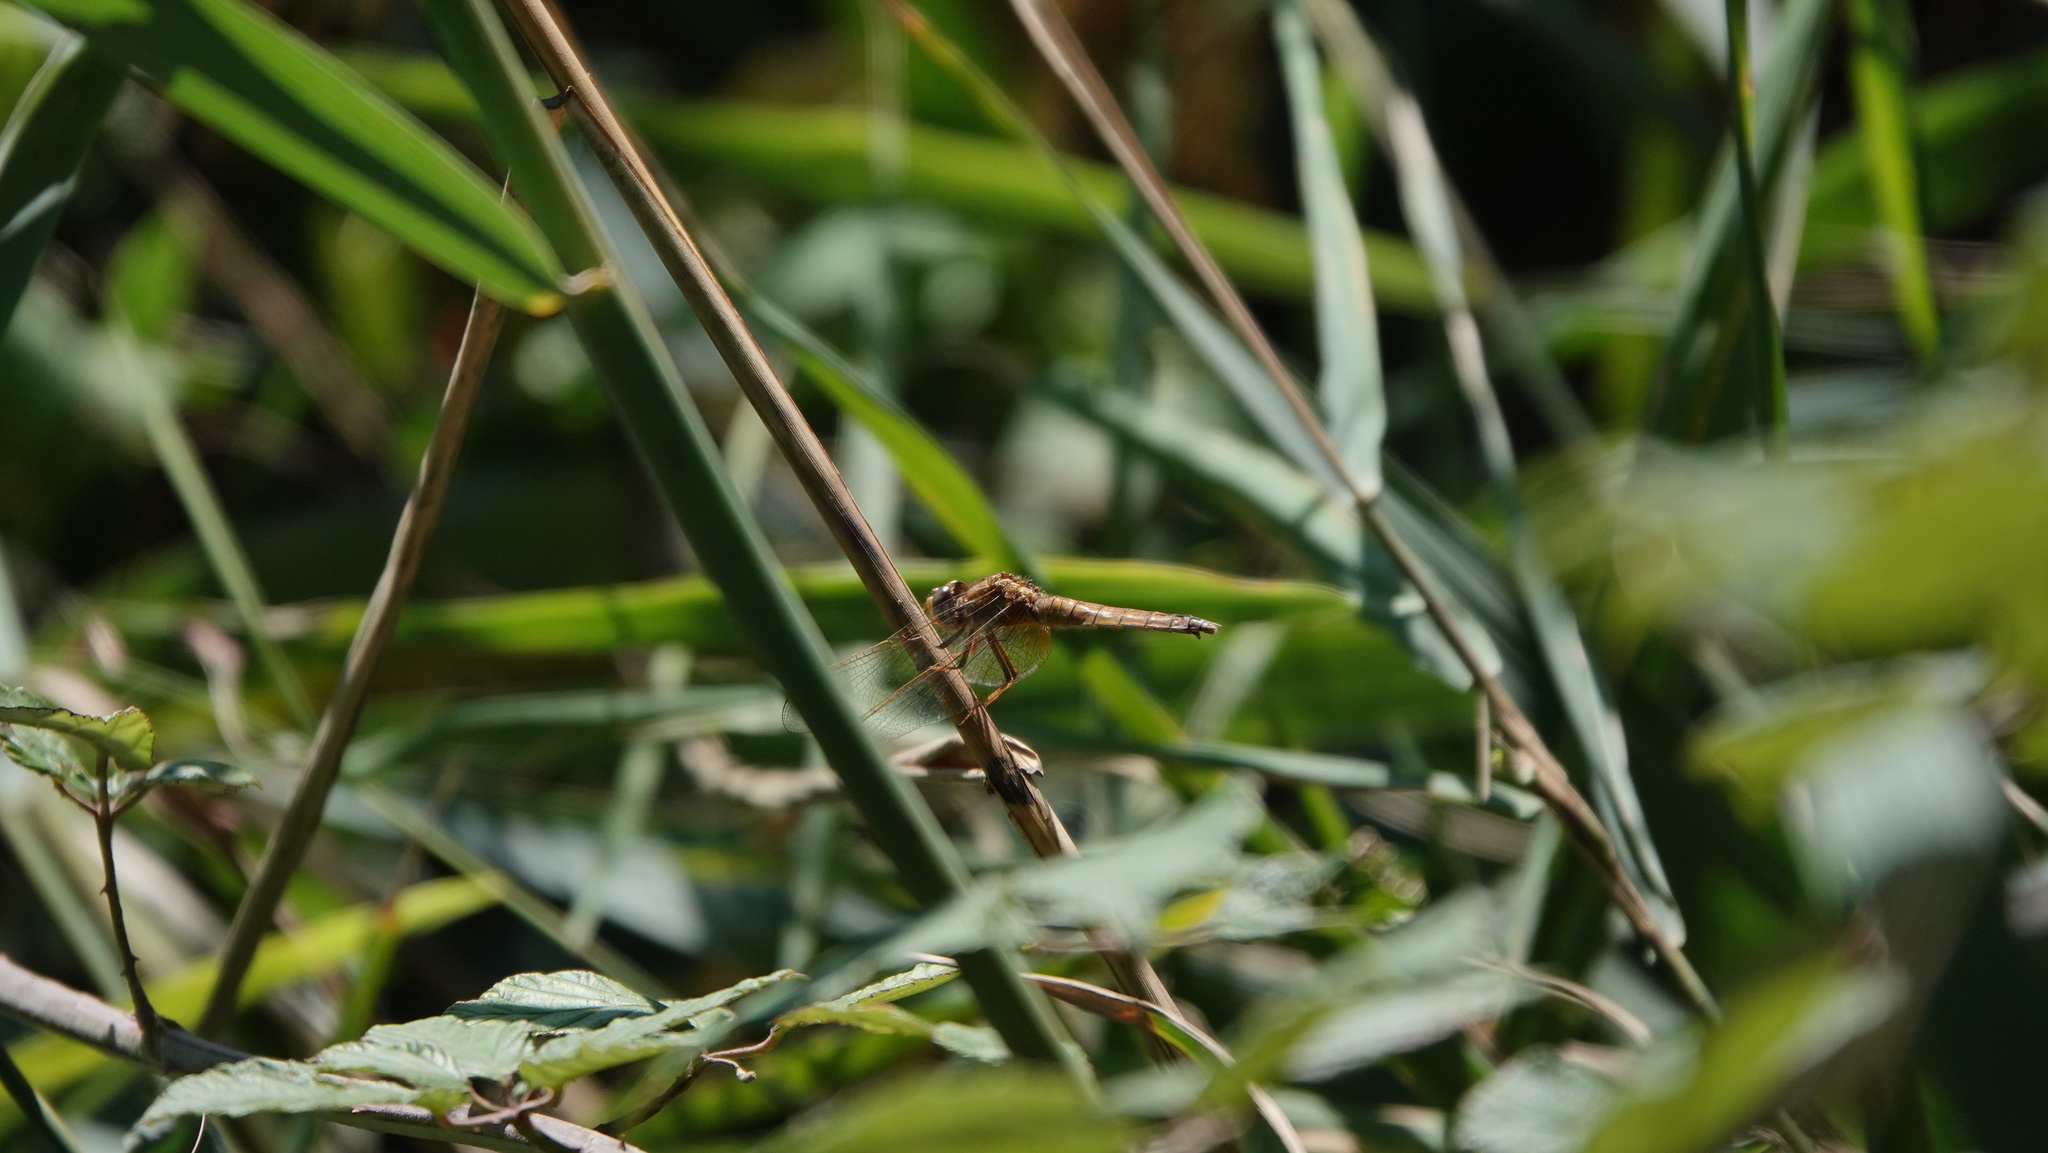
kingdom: Animalia
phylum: Arthropoda
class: Insecta
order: Odonata
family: Libellulidae
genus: Crocothemis
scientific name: Crocothemis erythraea
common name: Scarlet dragonfly
